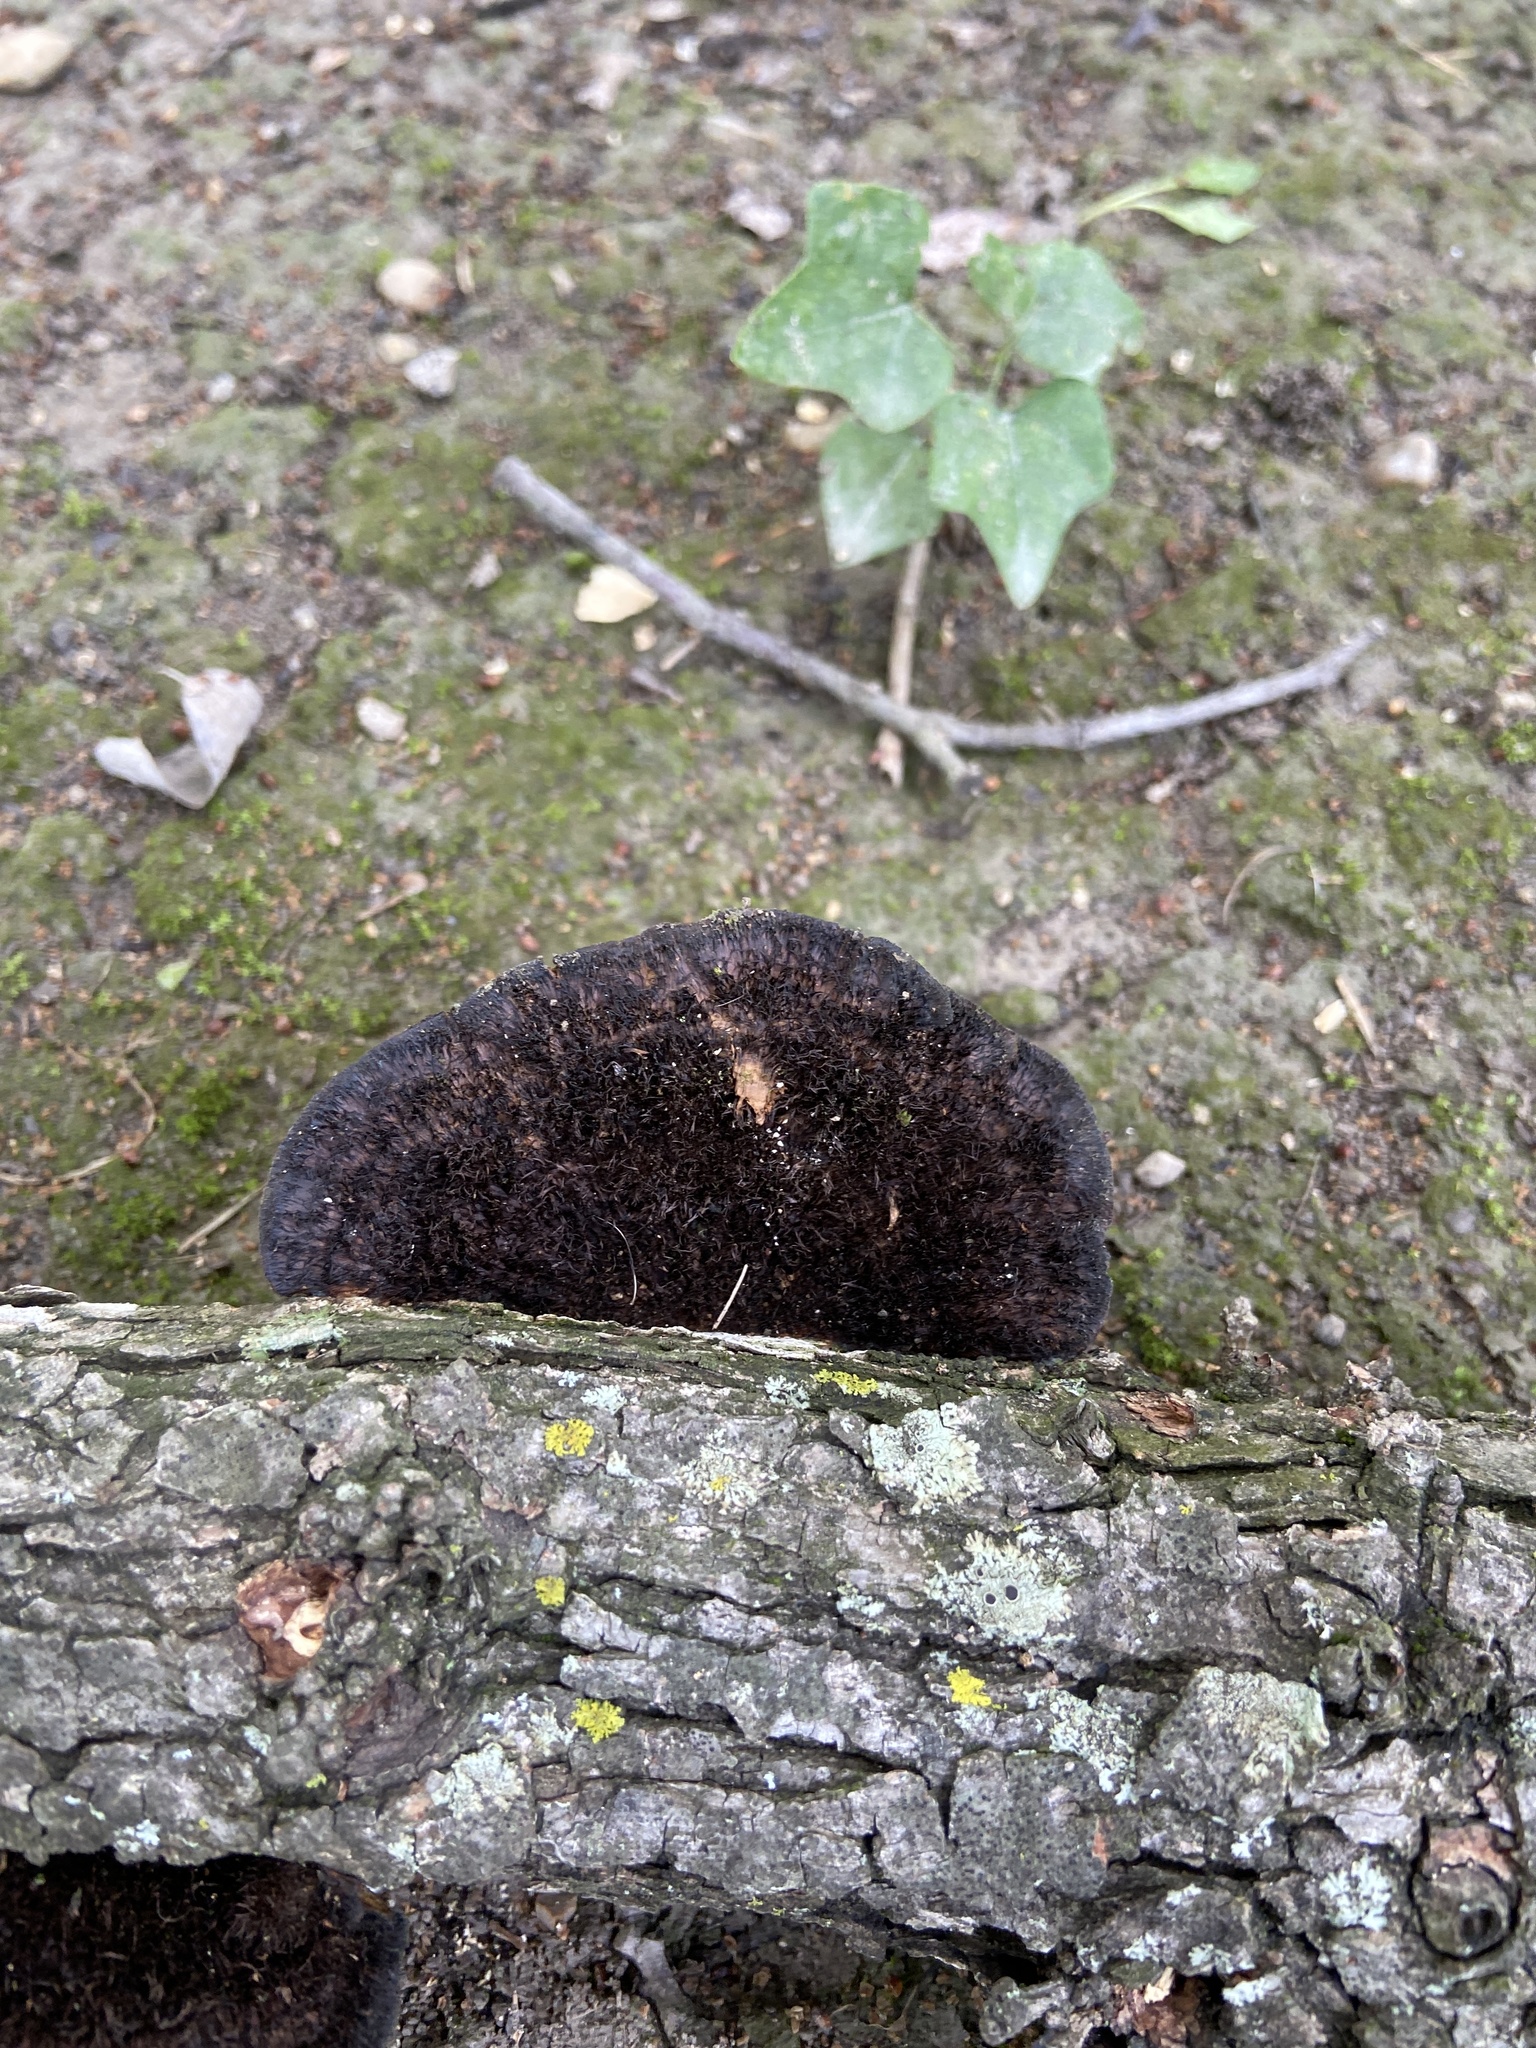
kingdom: Fungi
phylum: Basidiomycota
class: Agaricomycetes
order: Polyporales
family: Cerrenaceae
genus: Cerrena
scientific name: Cerrena hydnoides
